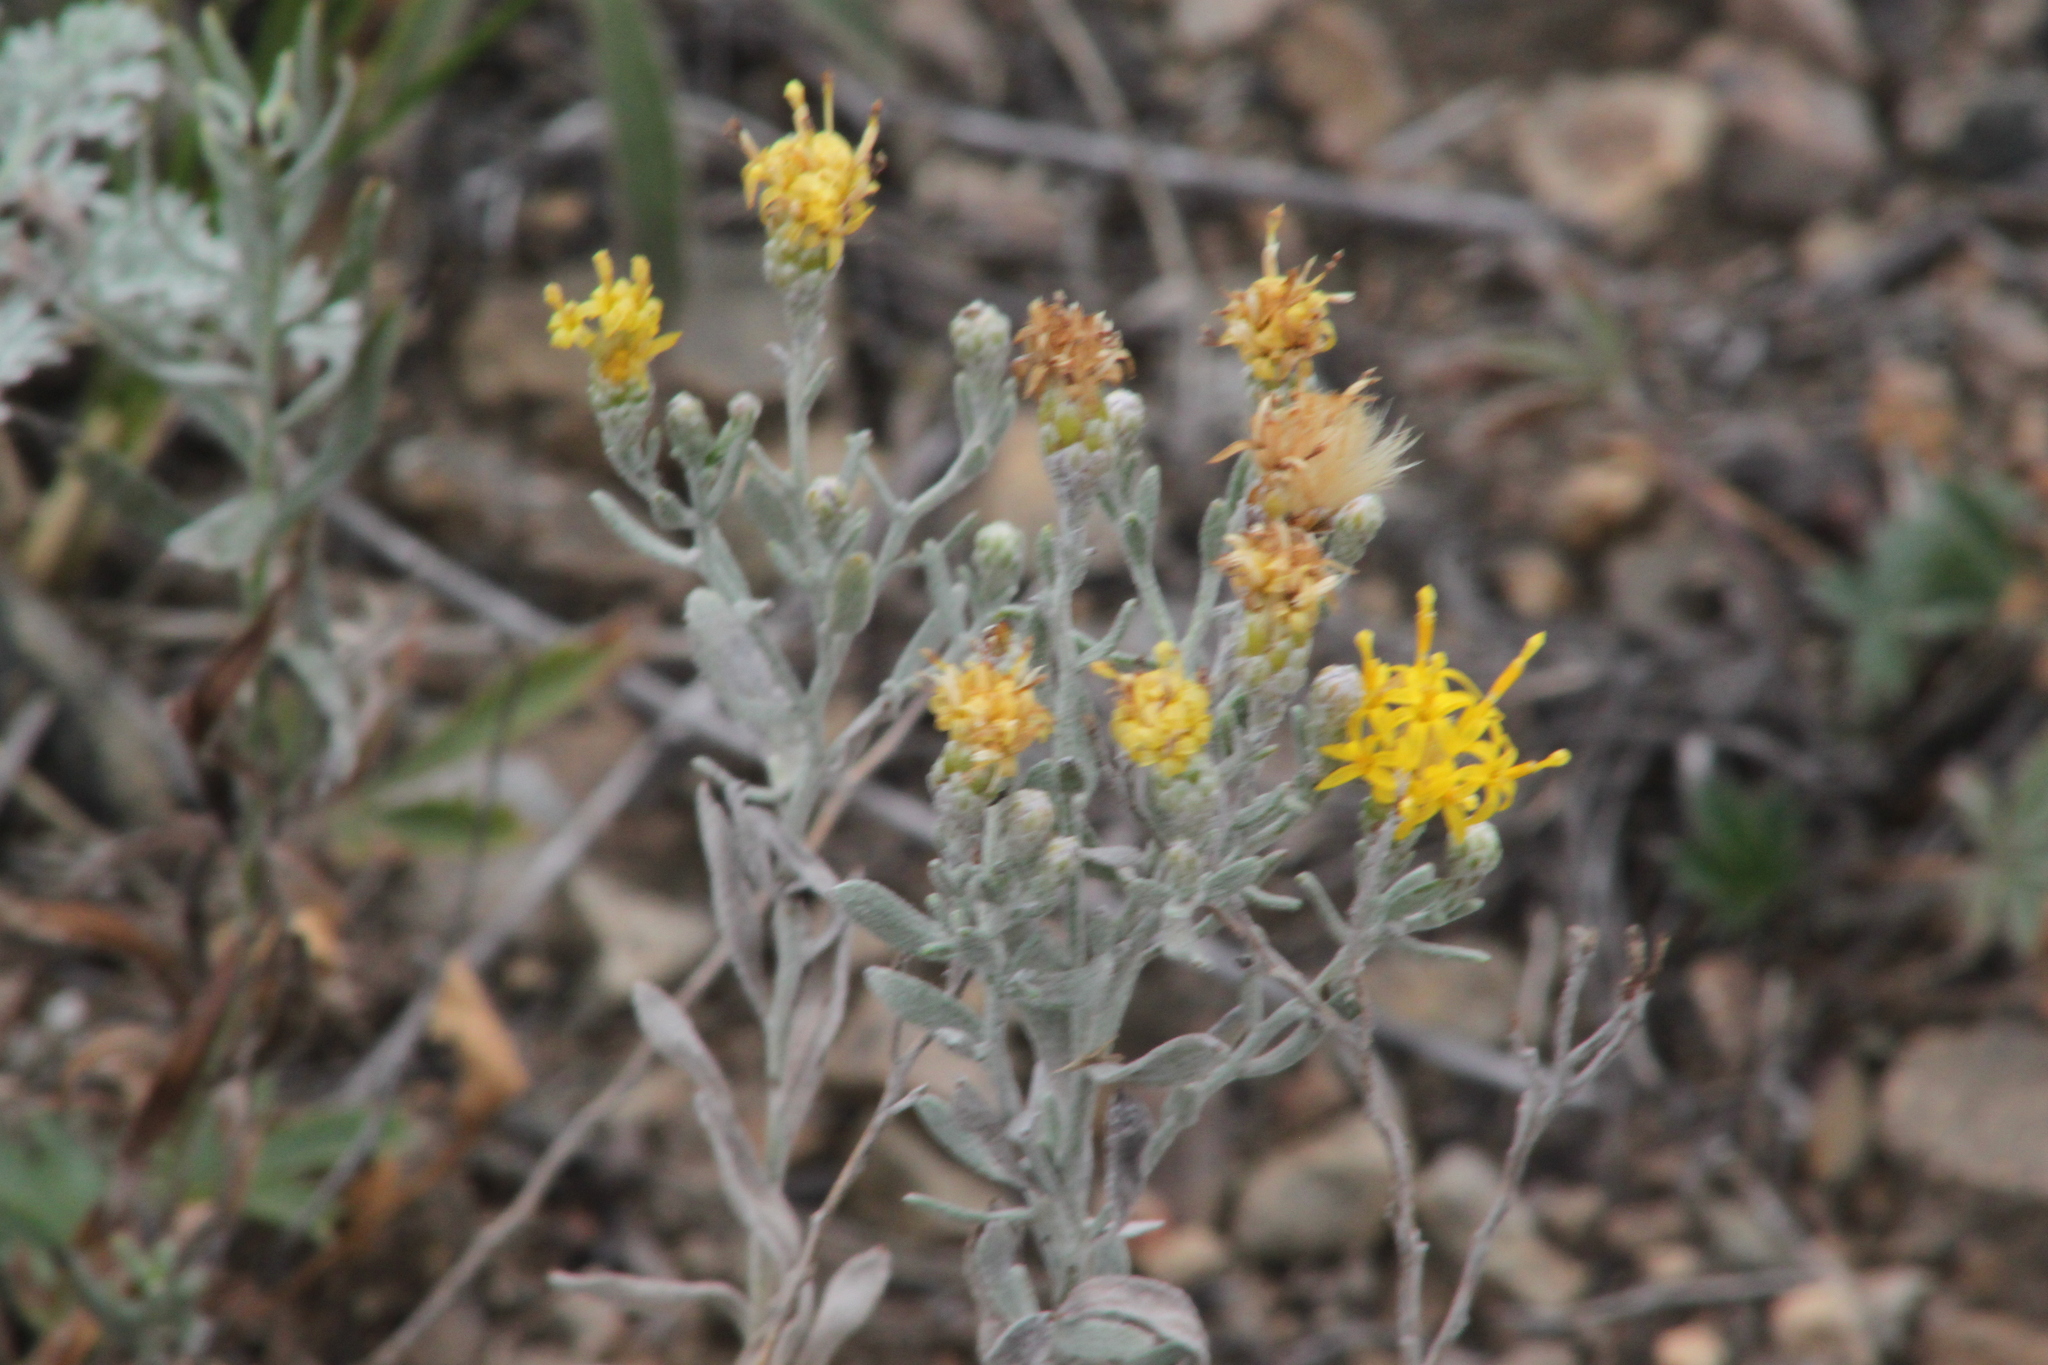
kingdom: Plantae
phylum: Tracheophyta
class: Magnoliopsida
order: Asterales
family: Asteraceae
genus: Galatella
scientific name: Galatella villosa
